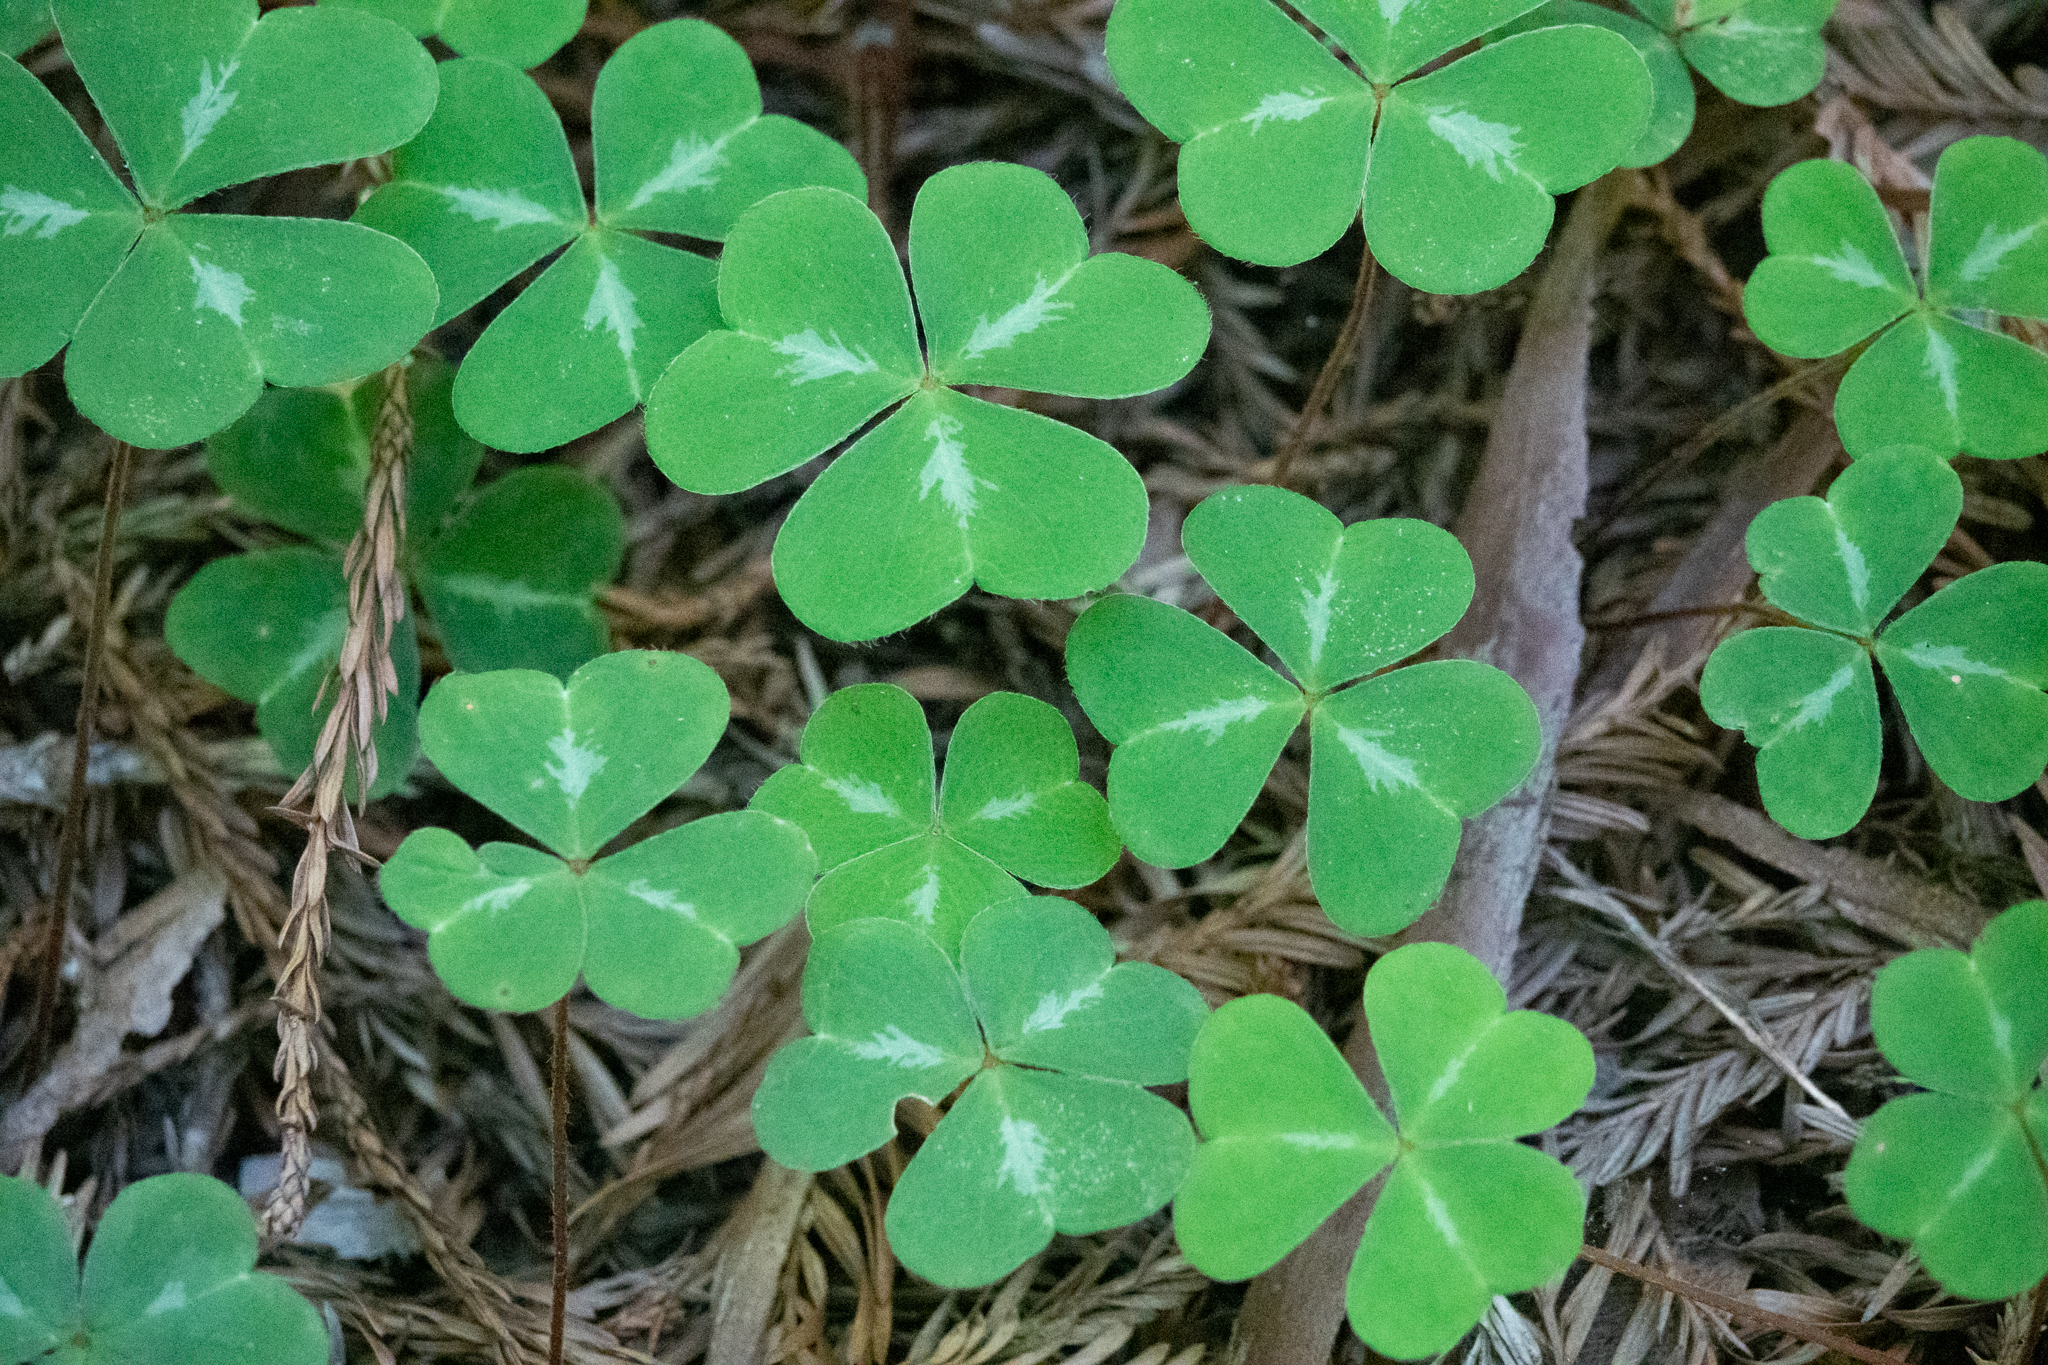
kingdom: Plantae
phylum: Tracheophyta
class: Magnoliopsida
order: Oxalidales
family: Oxalidaceae
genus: Oxalis
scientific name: Oxalis oregana
